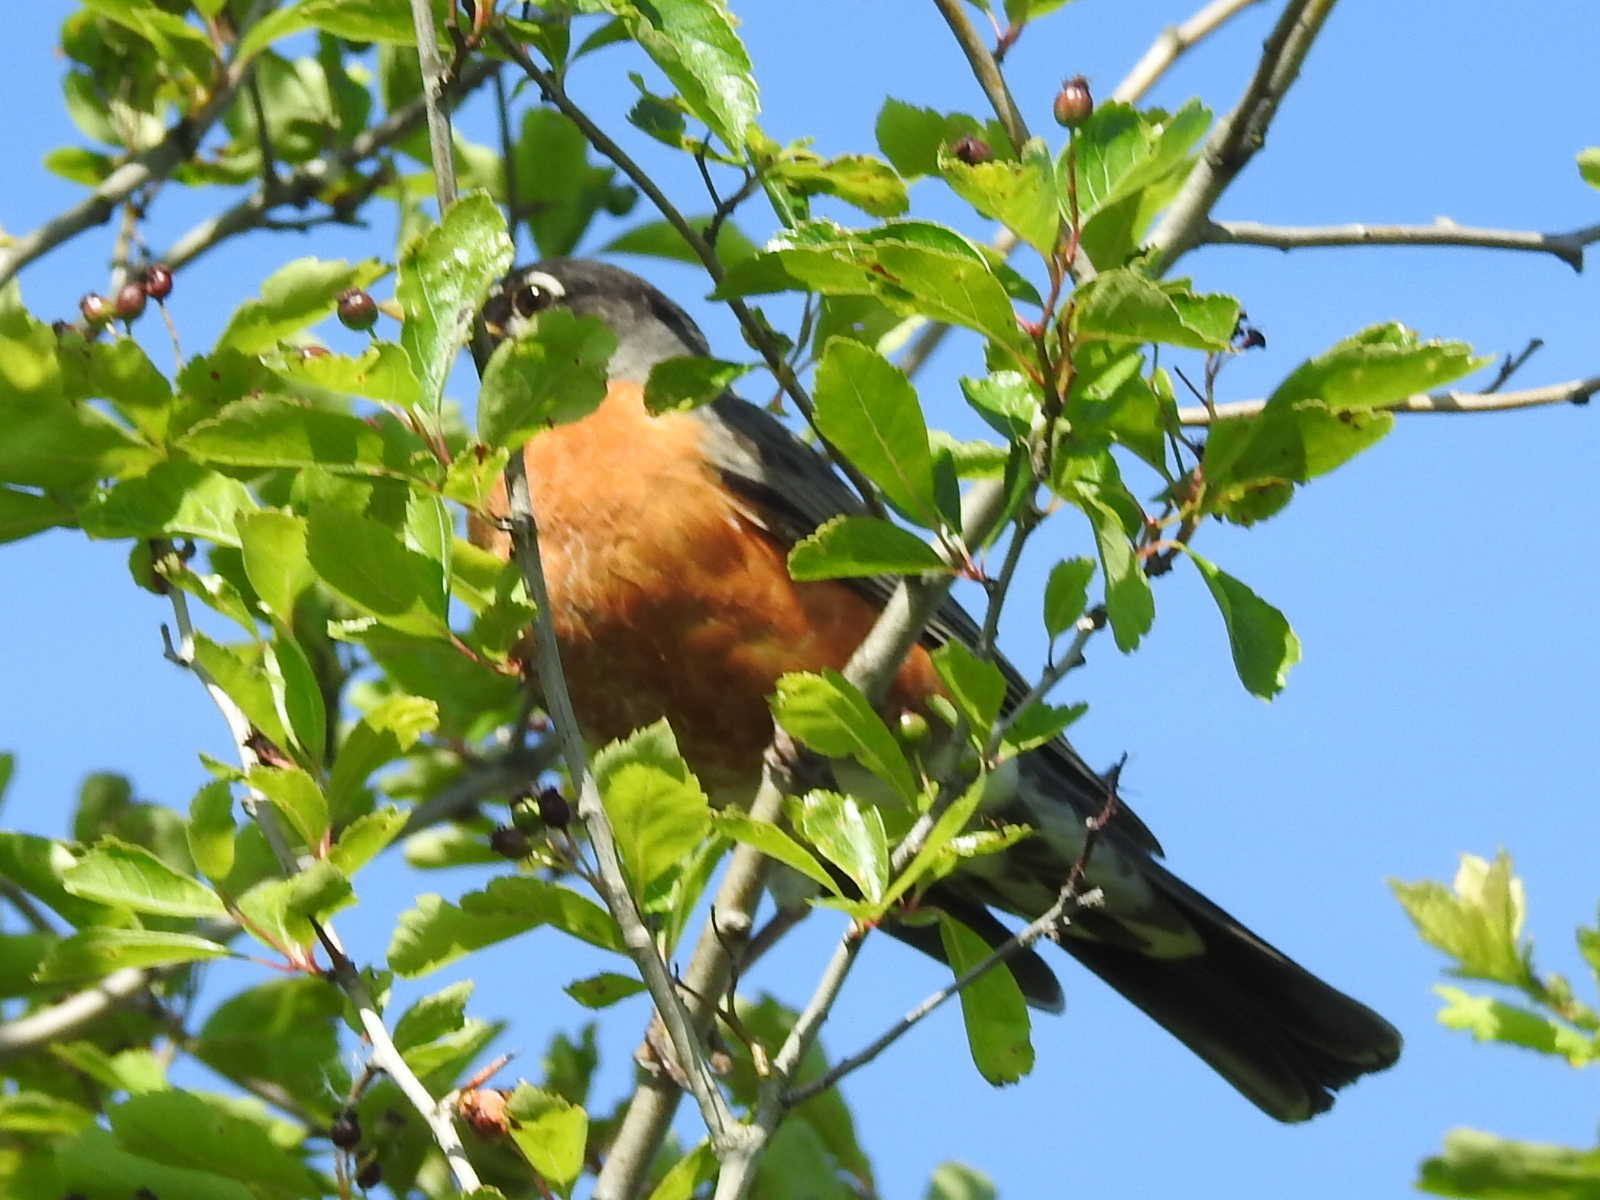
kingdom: Animalia
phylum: Chordata
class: Aves
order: Passeriformes
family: Turdidae
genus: Turdus
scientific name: Turdus migratorius
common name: American robin
